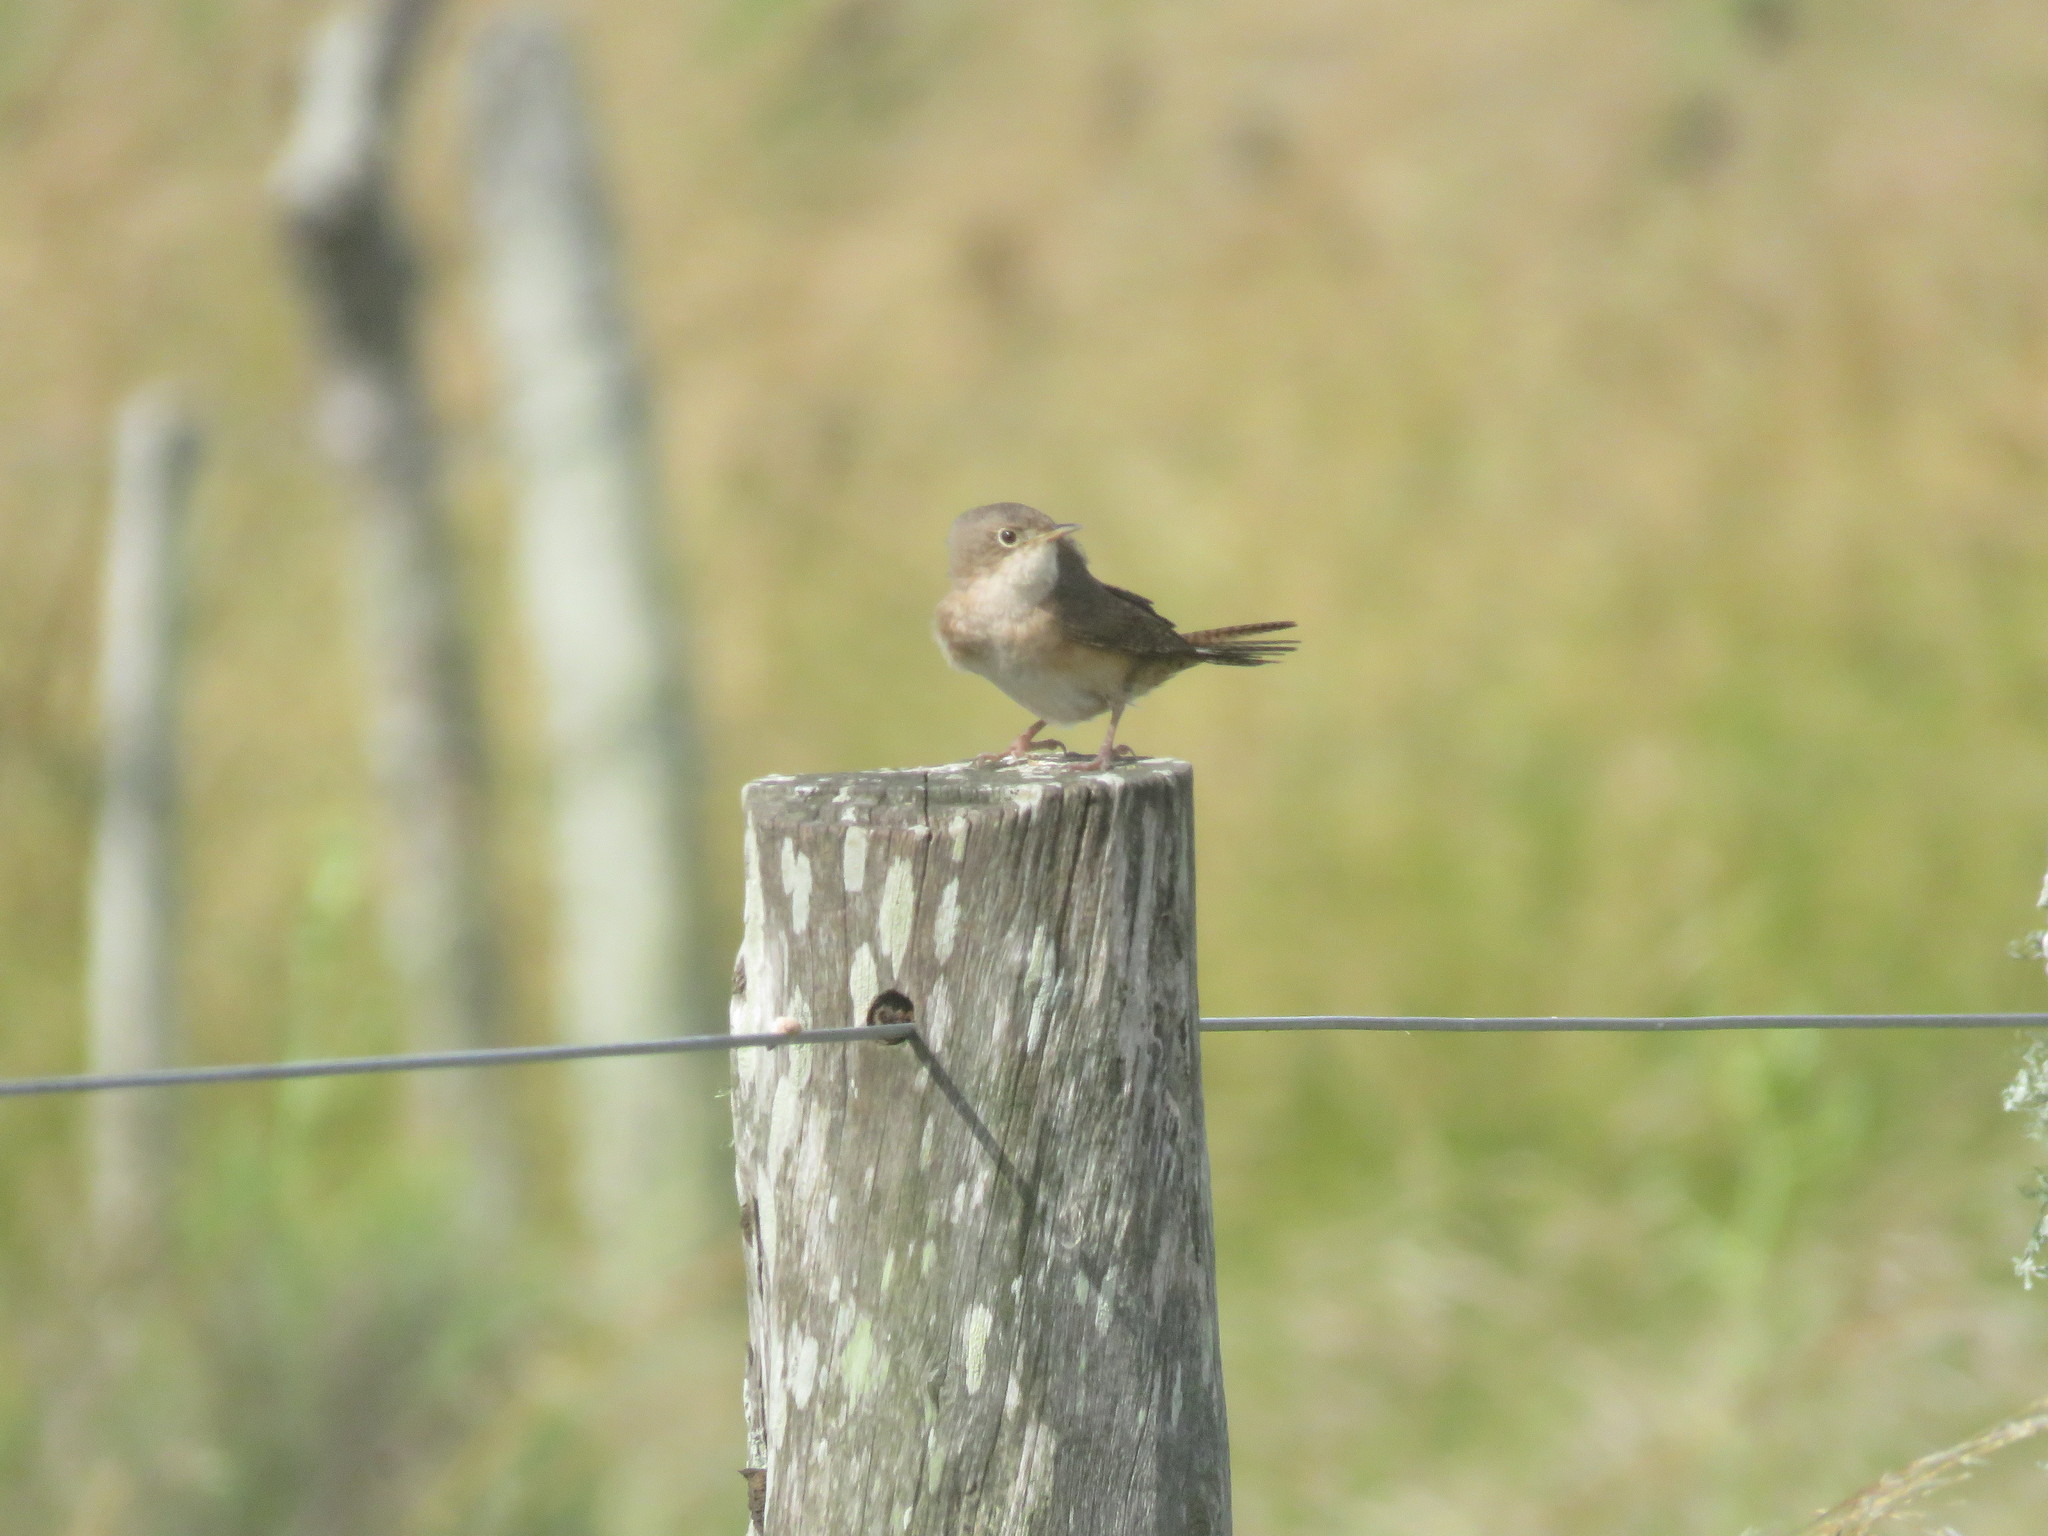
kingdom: Animalia
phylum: Chordata
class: Aves
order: Passeriformes
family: Troglodytidae
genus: Troglodytes
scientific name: Troglodytes aedon
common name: House wren
